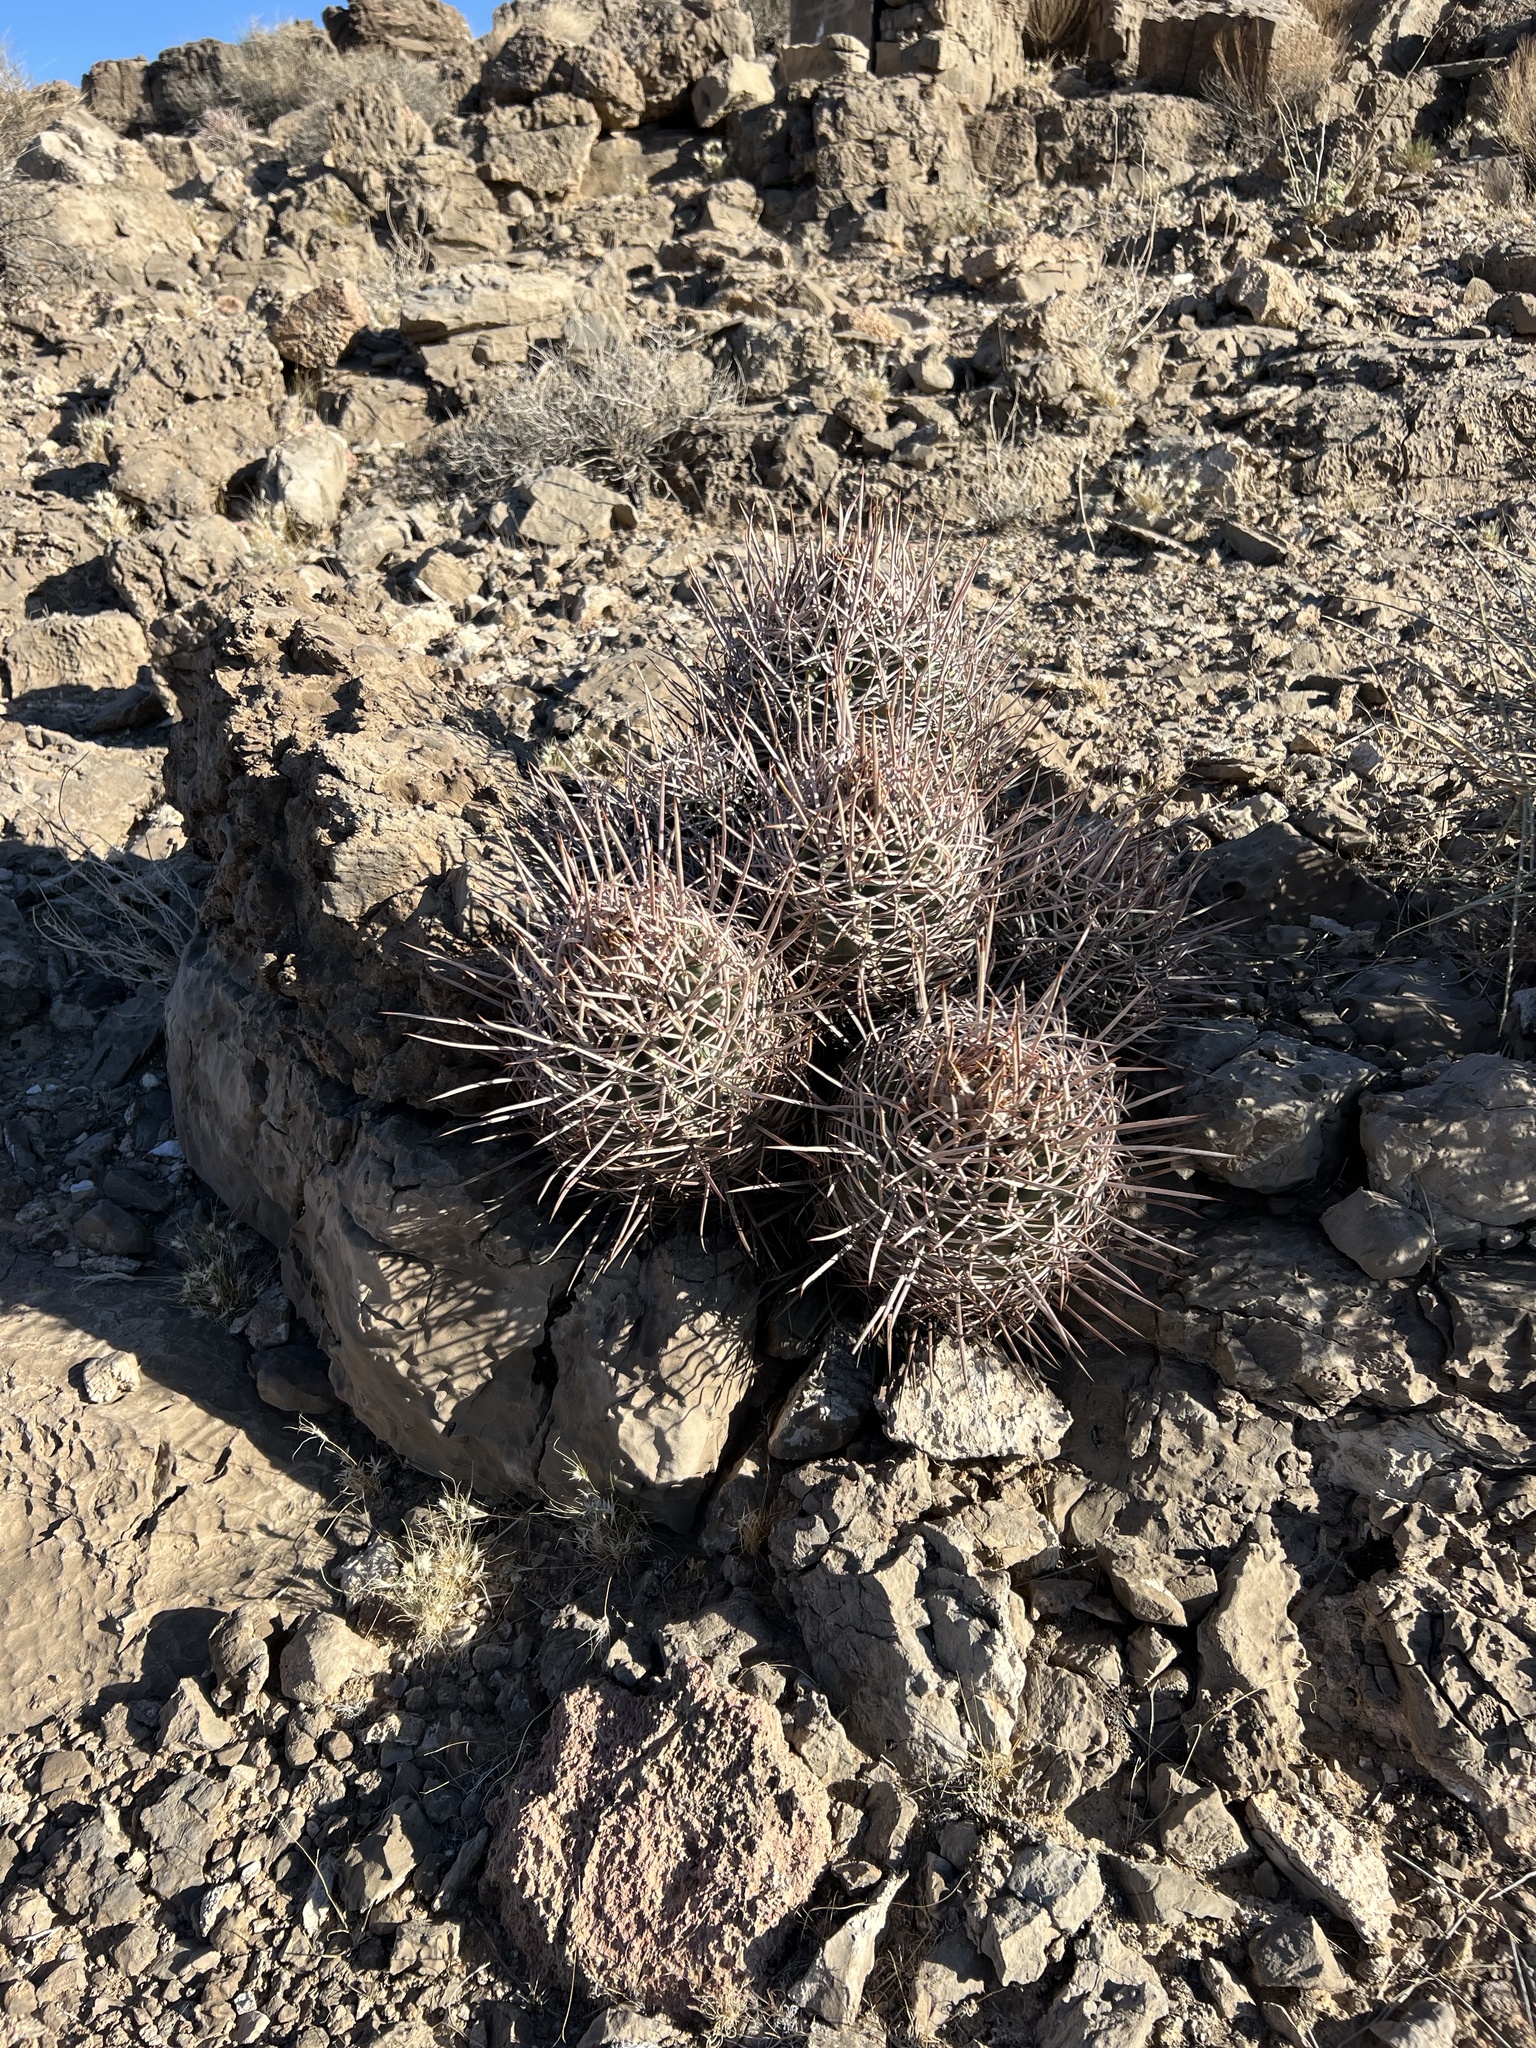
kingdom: Plantae
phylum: Tracheophyta
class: Magnoliopsida
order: Caryophyllales
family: Cactaceae
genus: Echinocactus
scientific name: Echinocactus polycephalus
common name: Cottontop cactus
